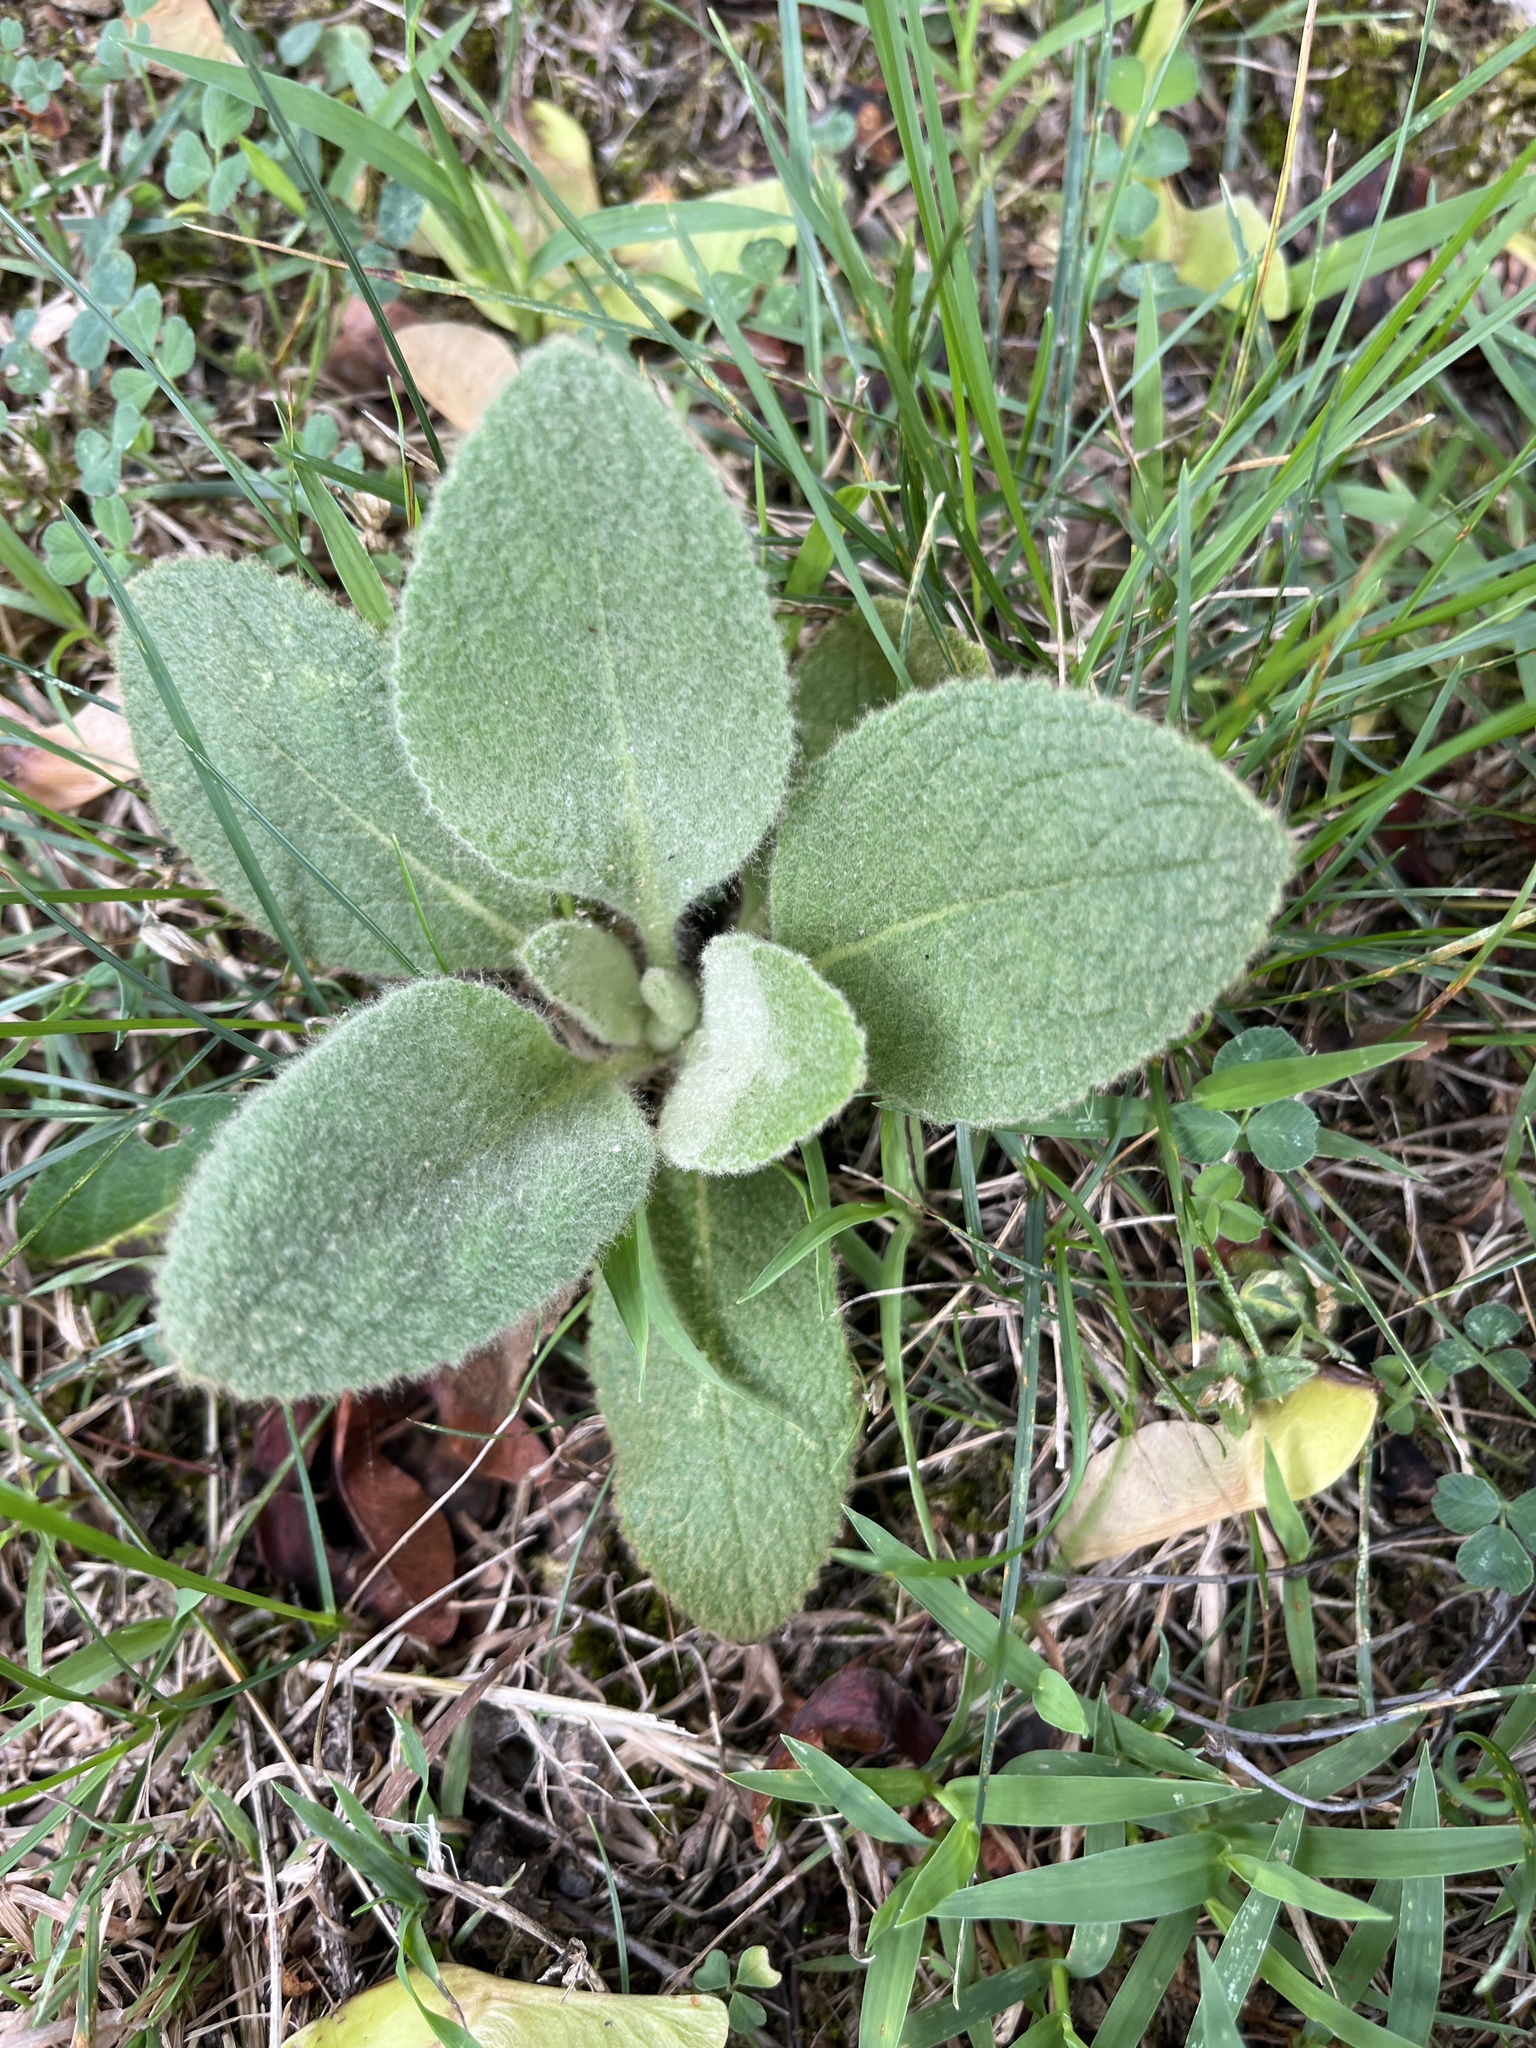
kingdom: Plantae
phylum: Tracheophyta
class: Magnoliopsida
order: Lamiales
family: Scrophulariaceae
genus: Verbascum
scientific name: Verbascum thapsus
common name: Common mullein
